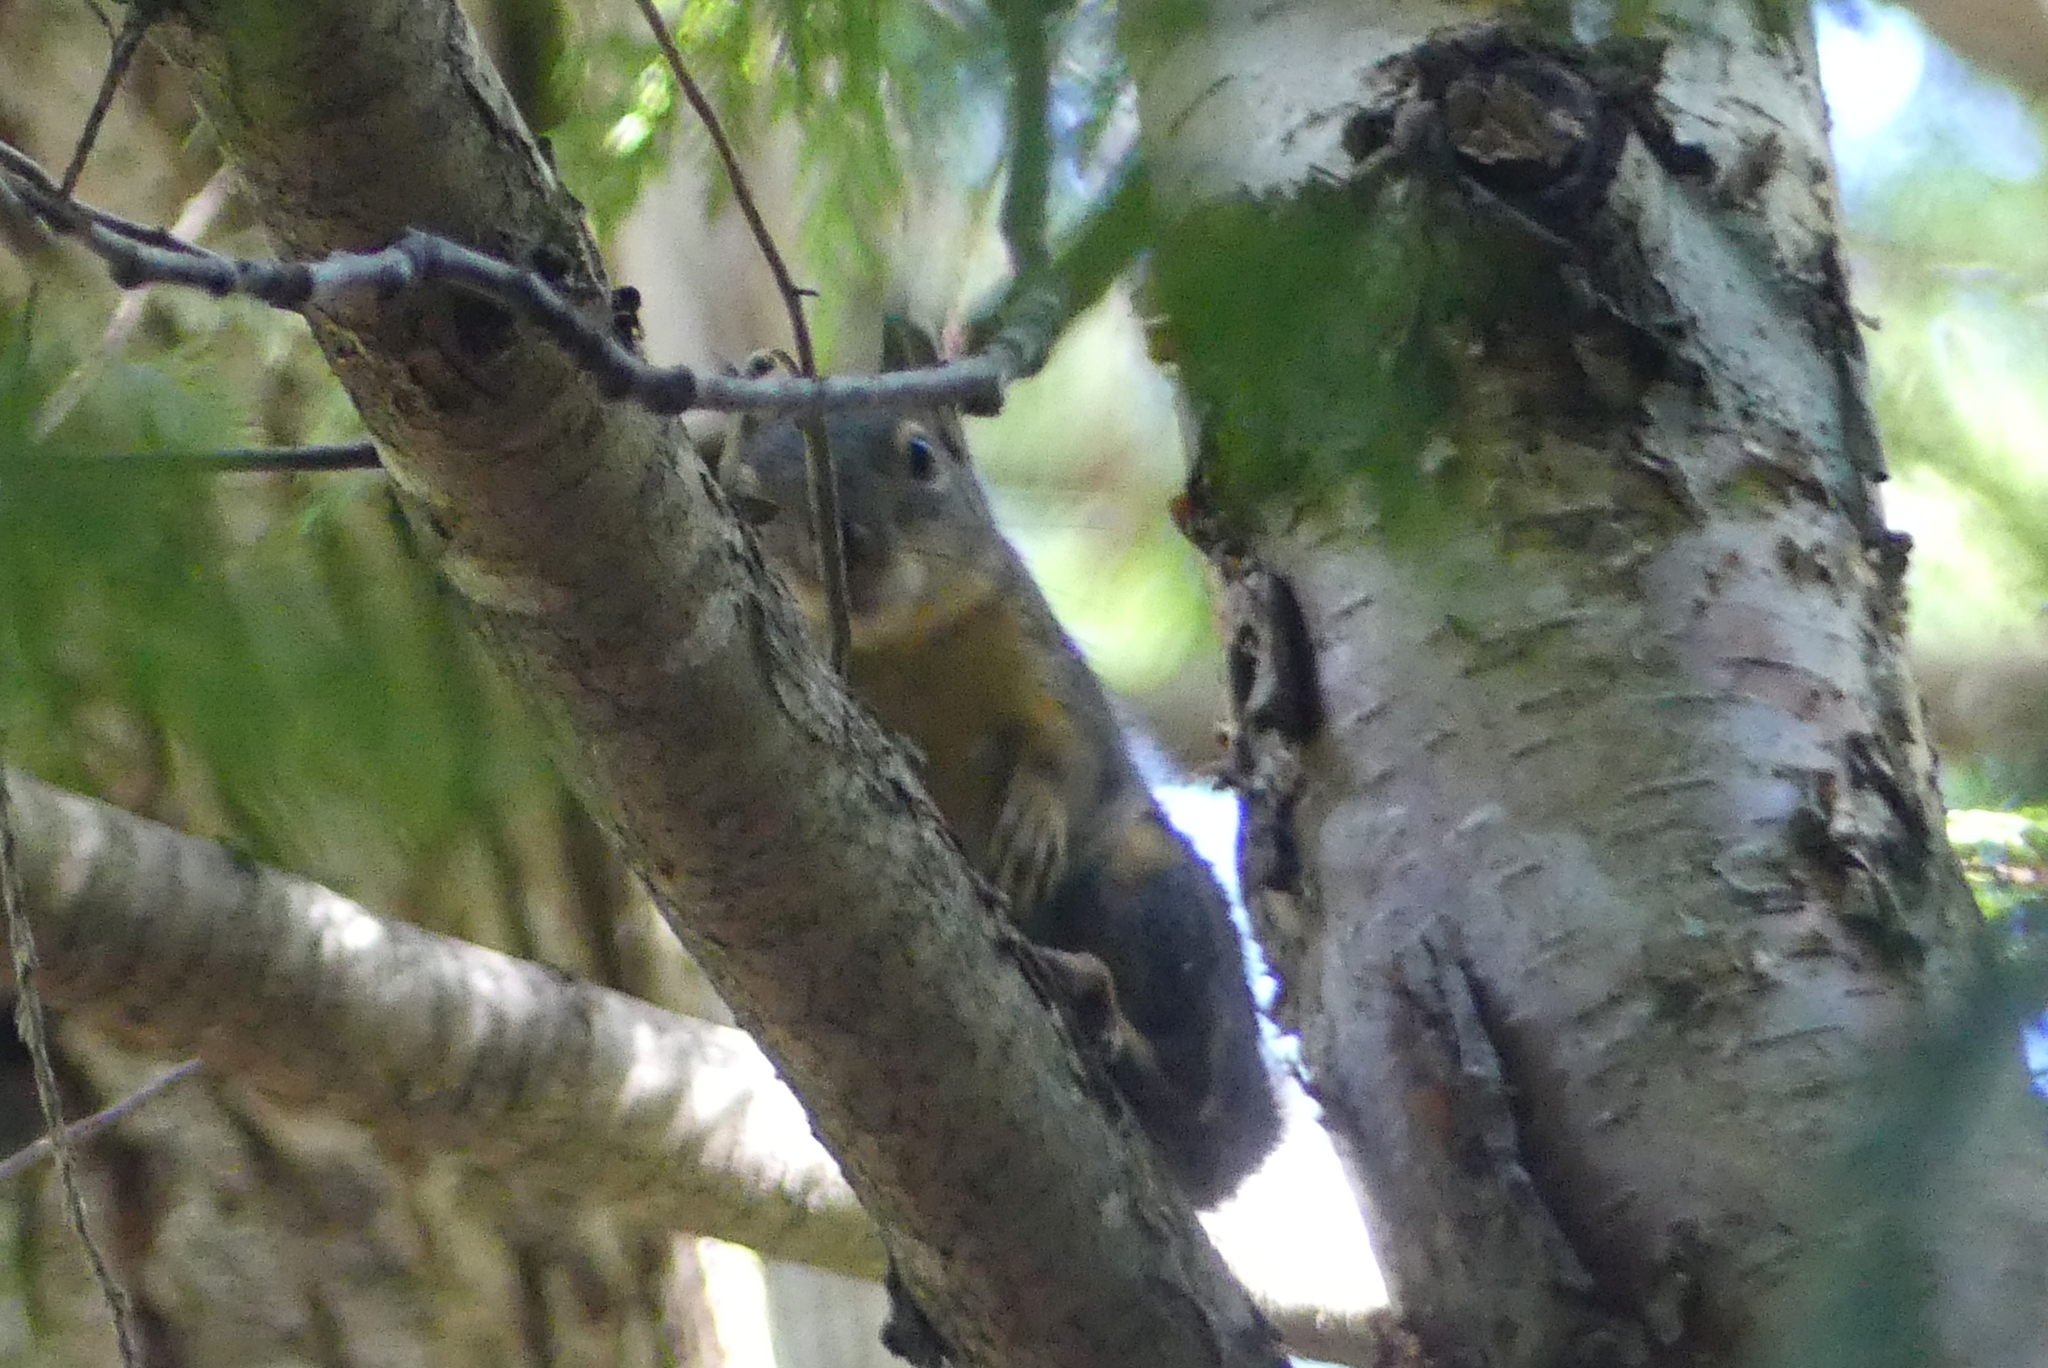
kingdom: Animalia
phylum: Chordata
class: Mammalia
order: Rodentia
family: Sciuridae
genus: Tamiasciurus
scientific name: Tamiasciurus douglasii
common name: Douglas's squirrel
